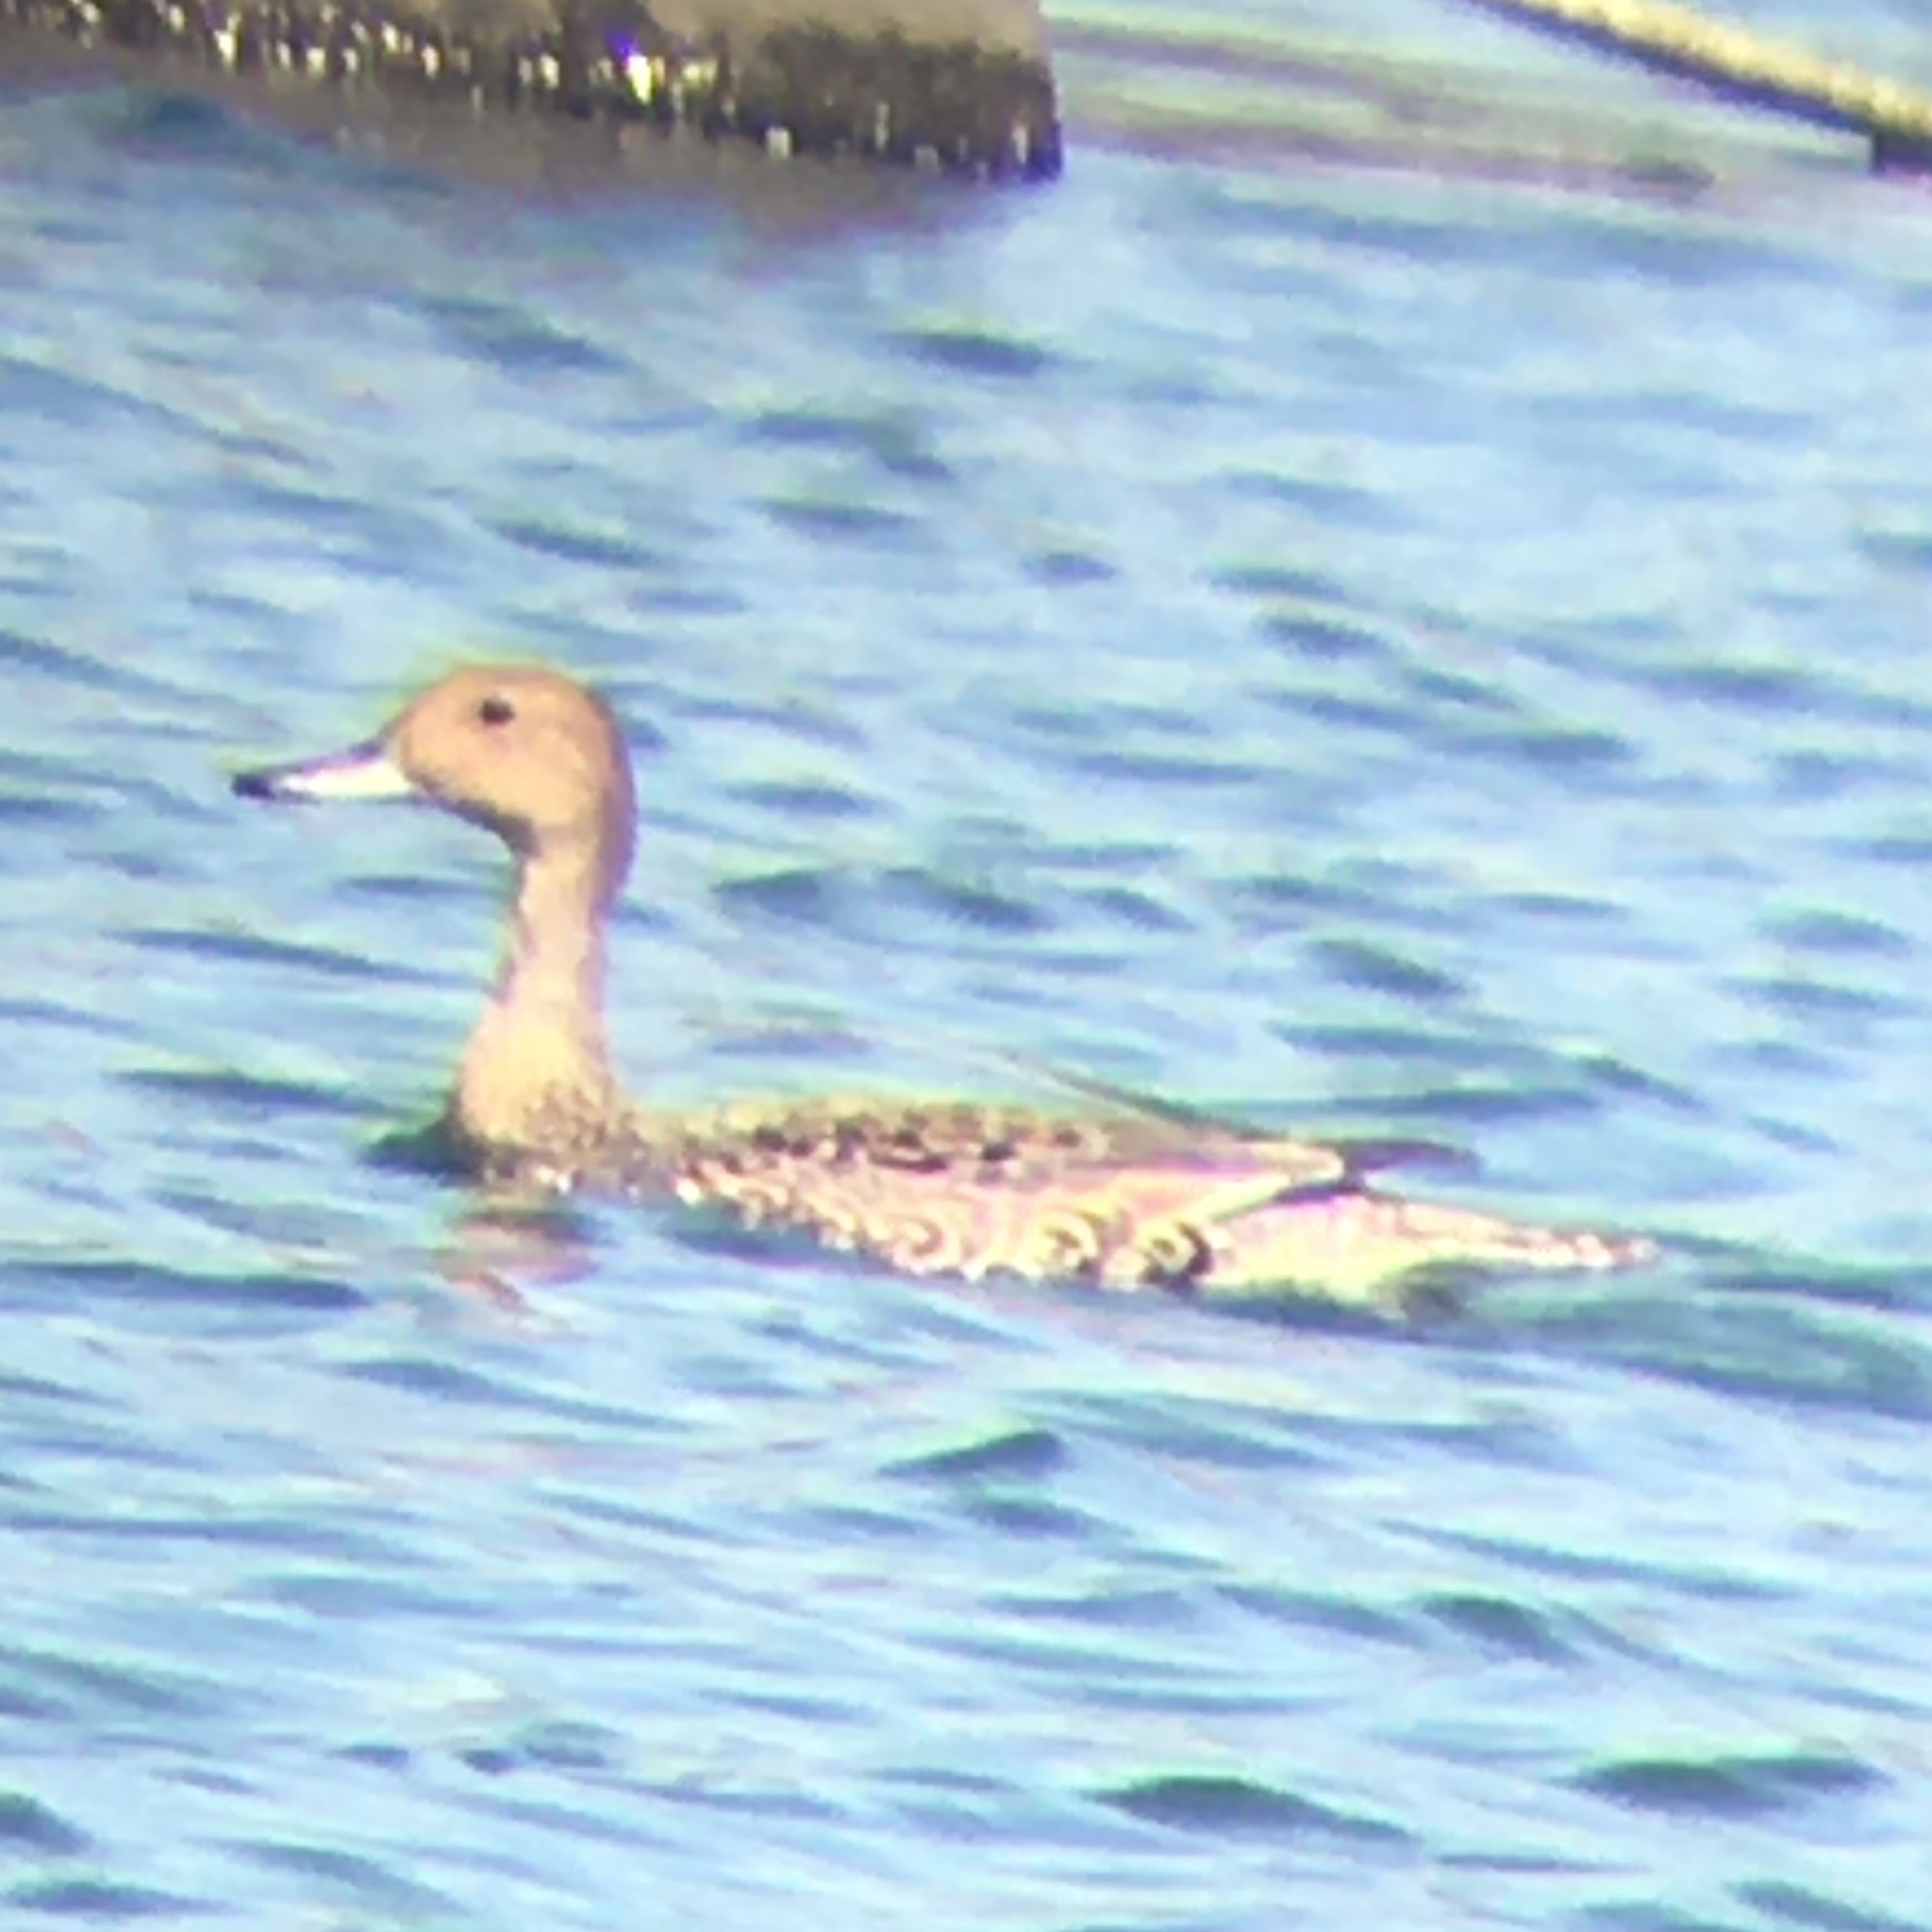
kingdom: Animalia
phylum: Chordata
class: Aves
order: Anseriformes
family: Anatidae
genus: Anas
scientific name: Anas acuta
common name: Northern pintail
